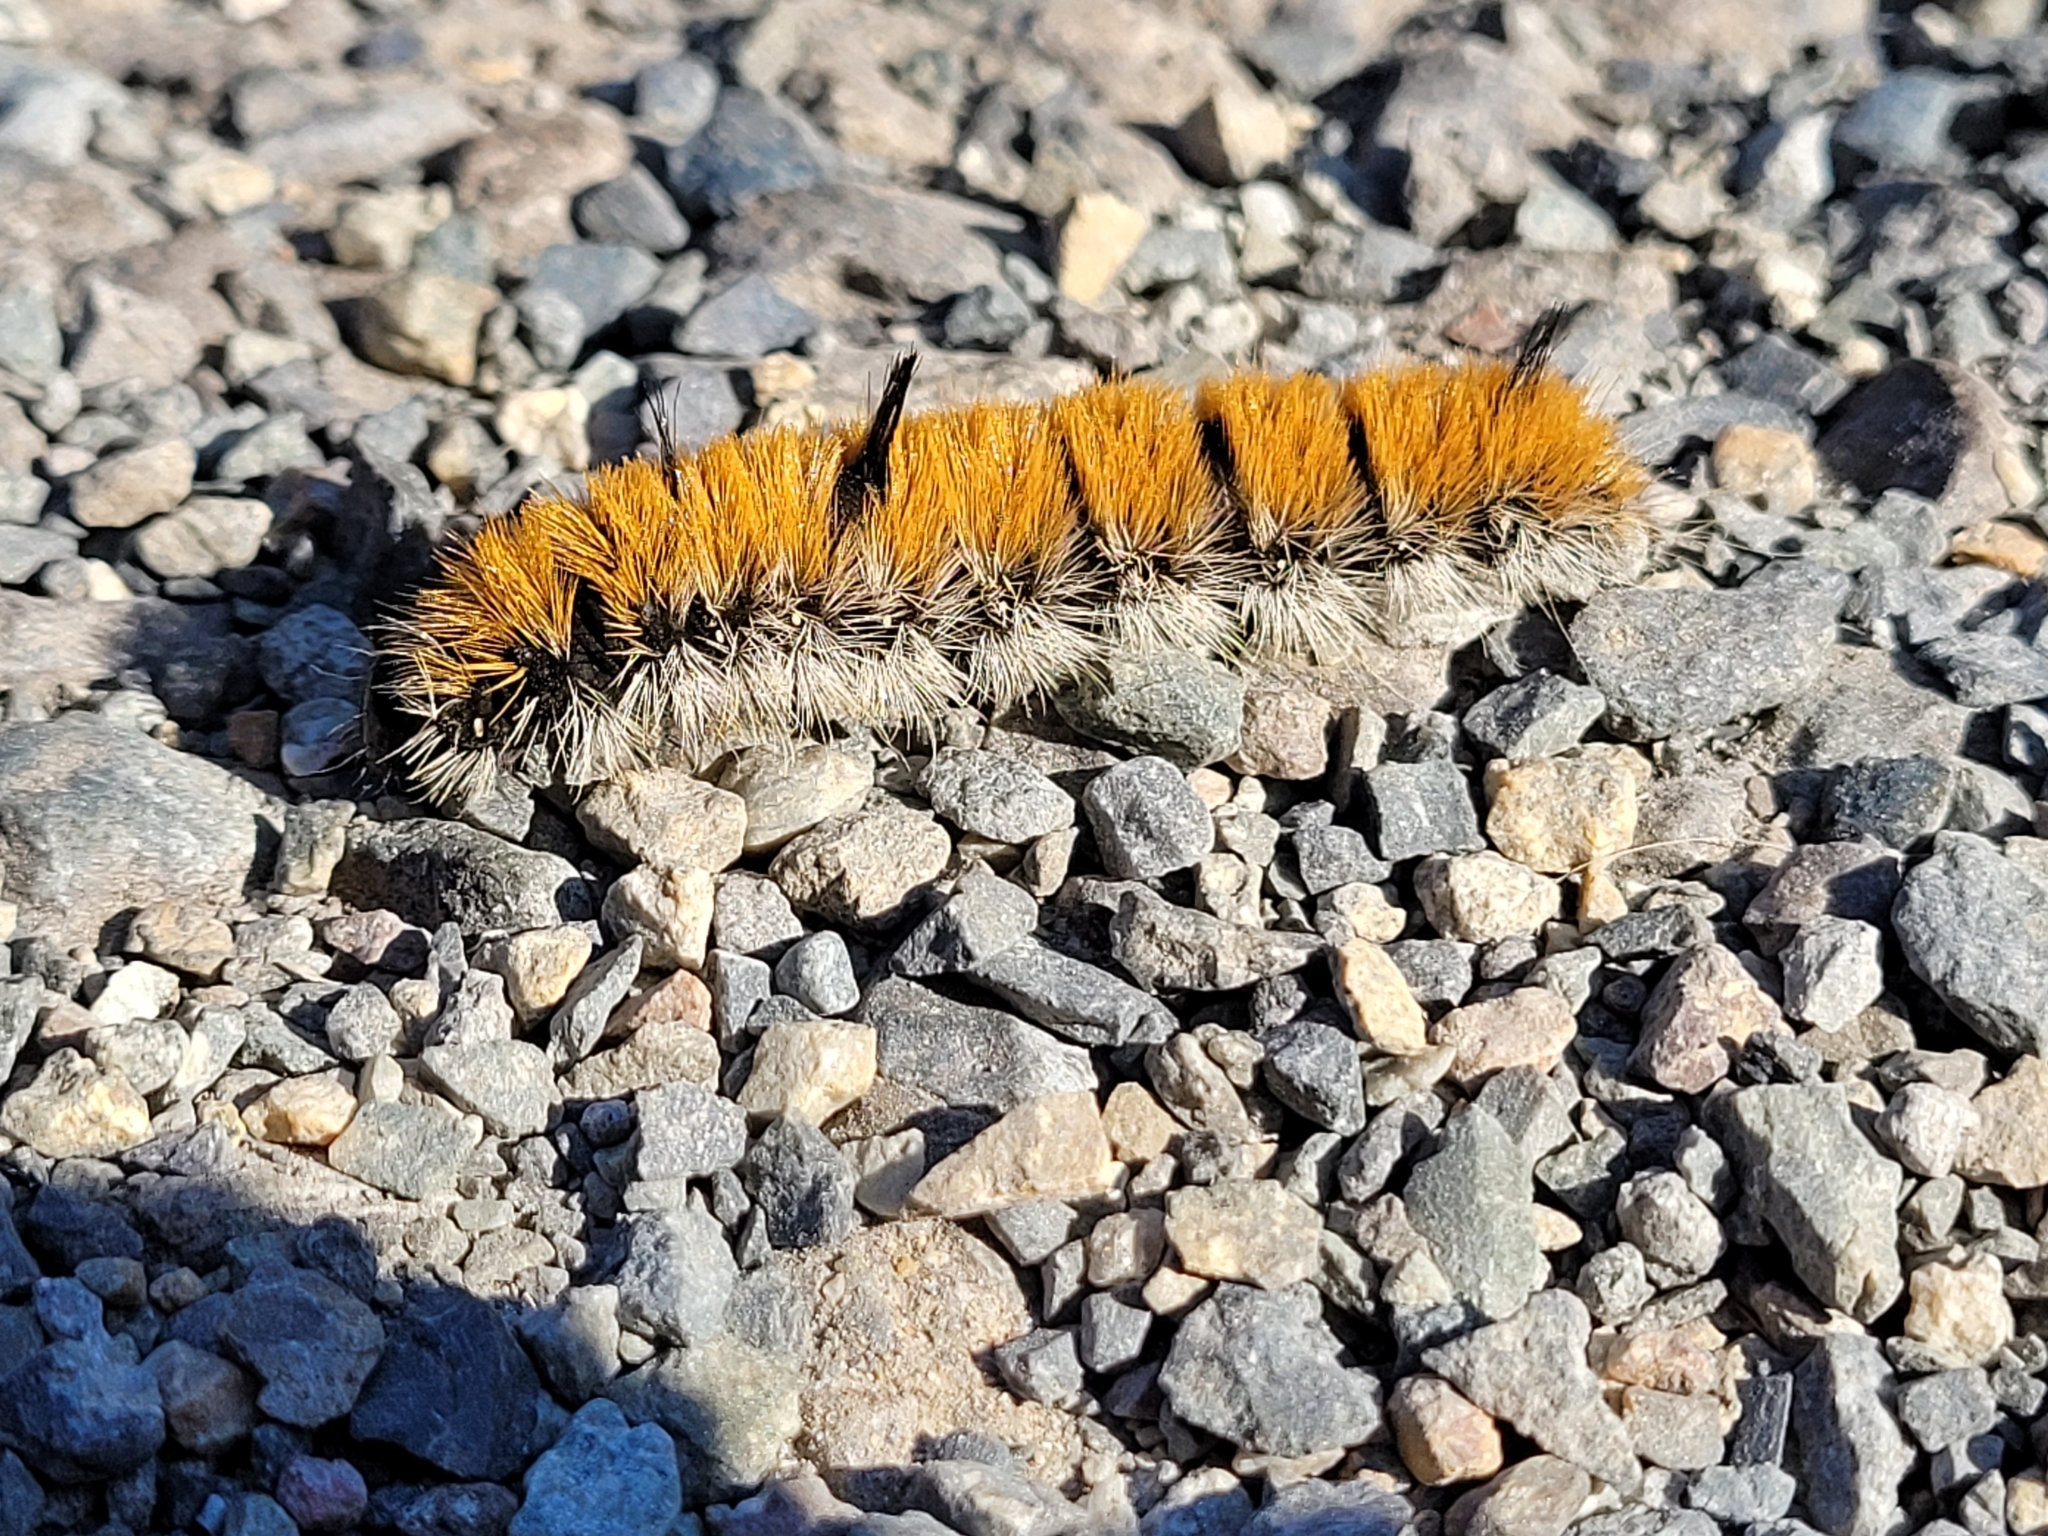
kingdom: Animalia
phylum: Arthropoda
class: Insecta
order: Lepidoptera
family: Noctuidae
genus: Acronicta
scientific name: Acronicta insita
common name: Large gray dagger
